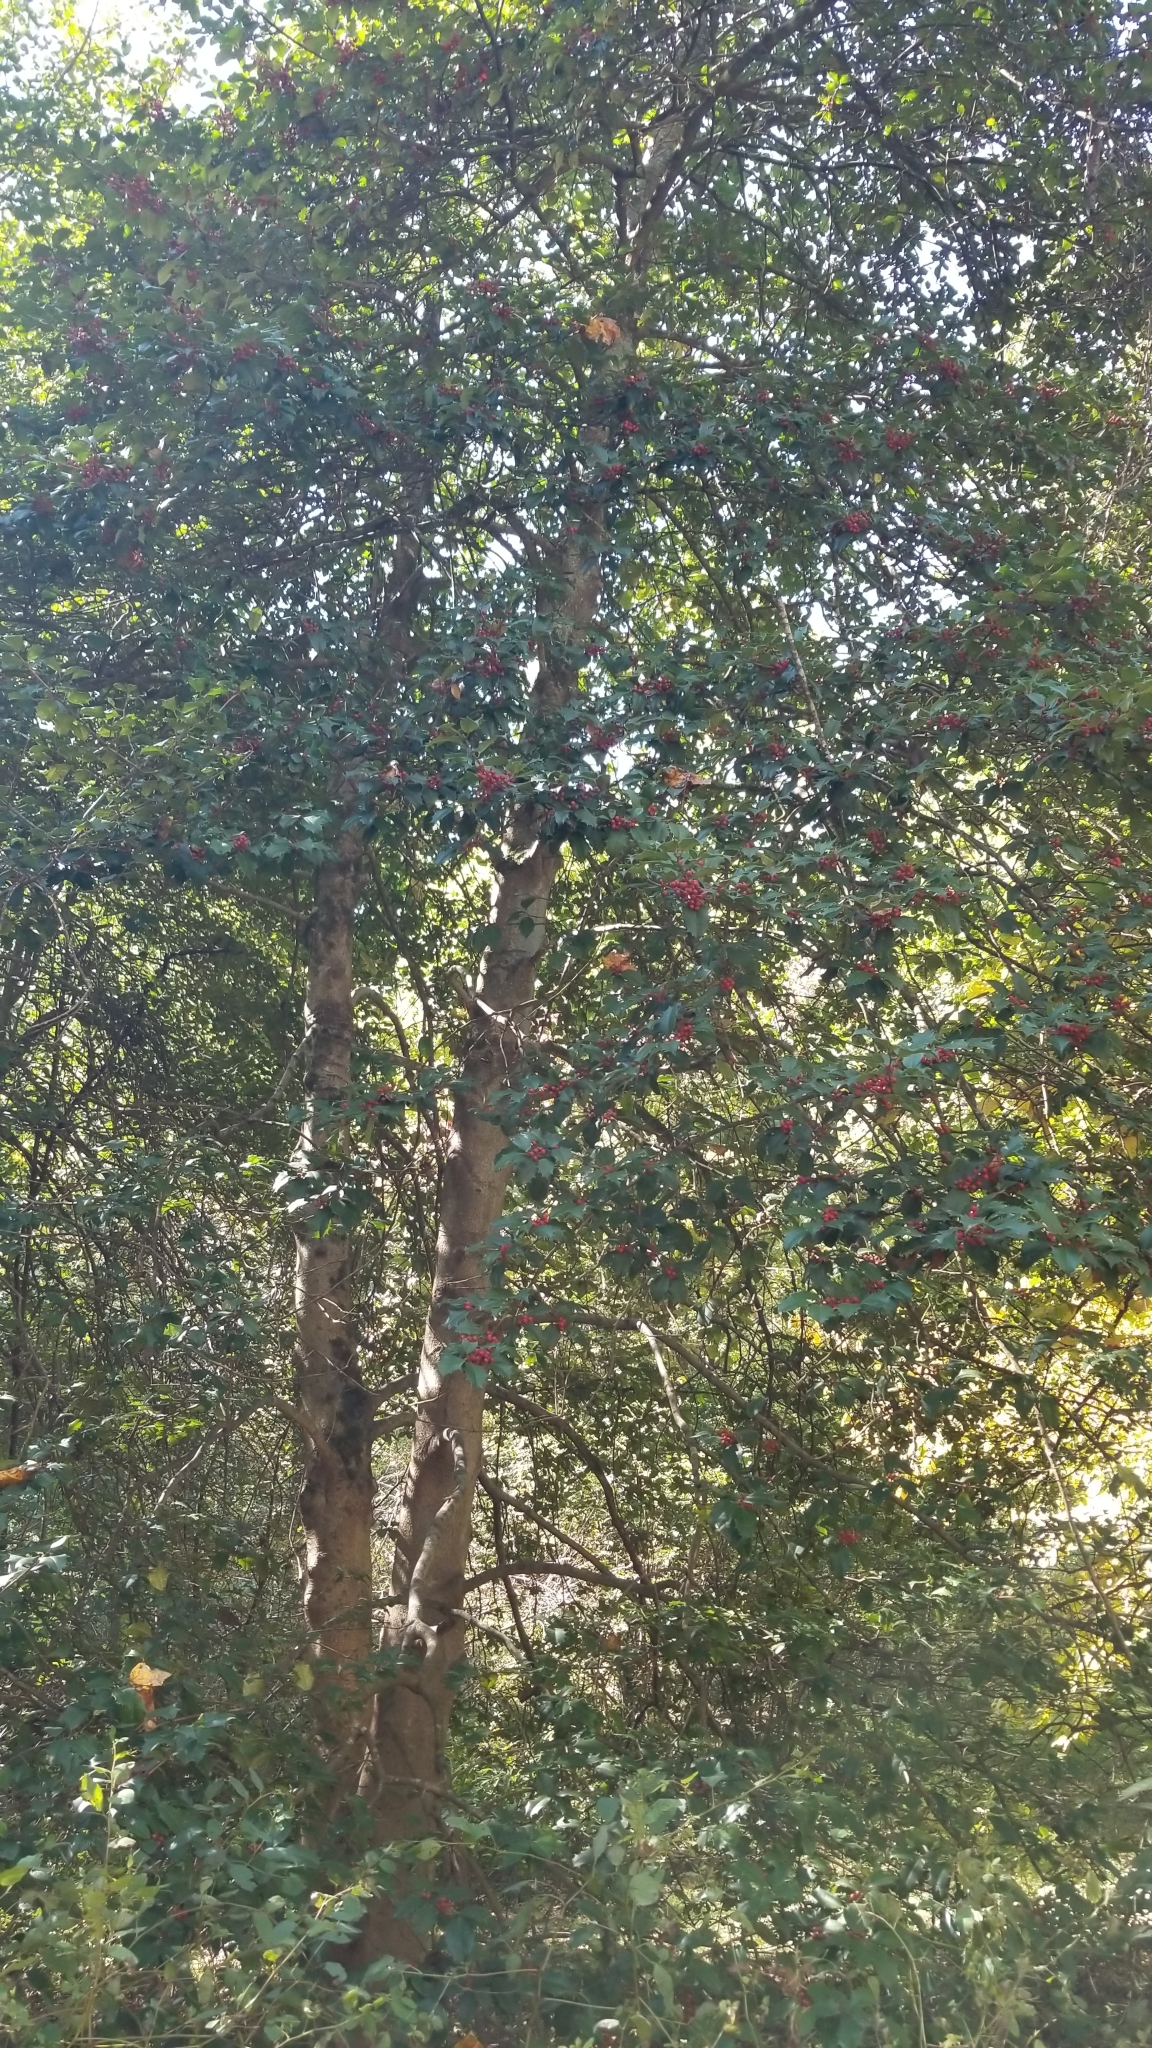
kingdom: Plantae
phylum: Tracheophyta
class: Magnoliopsida
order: Aquifoliales
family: Aquifoliaceae
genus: Ilex
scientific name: Ilex opaca
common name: American holly
